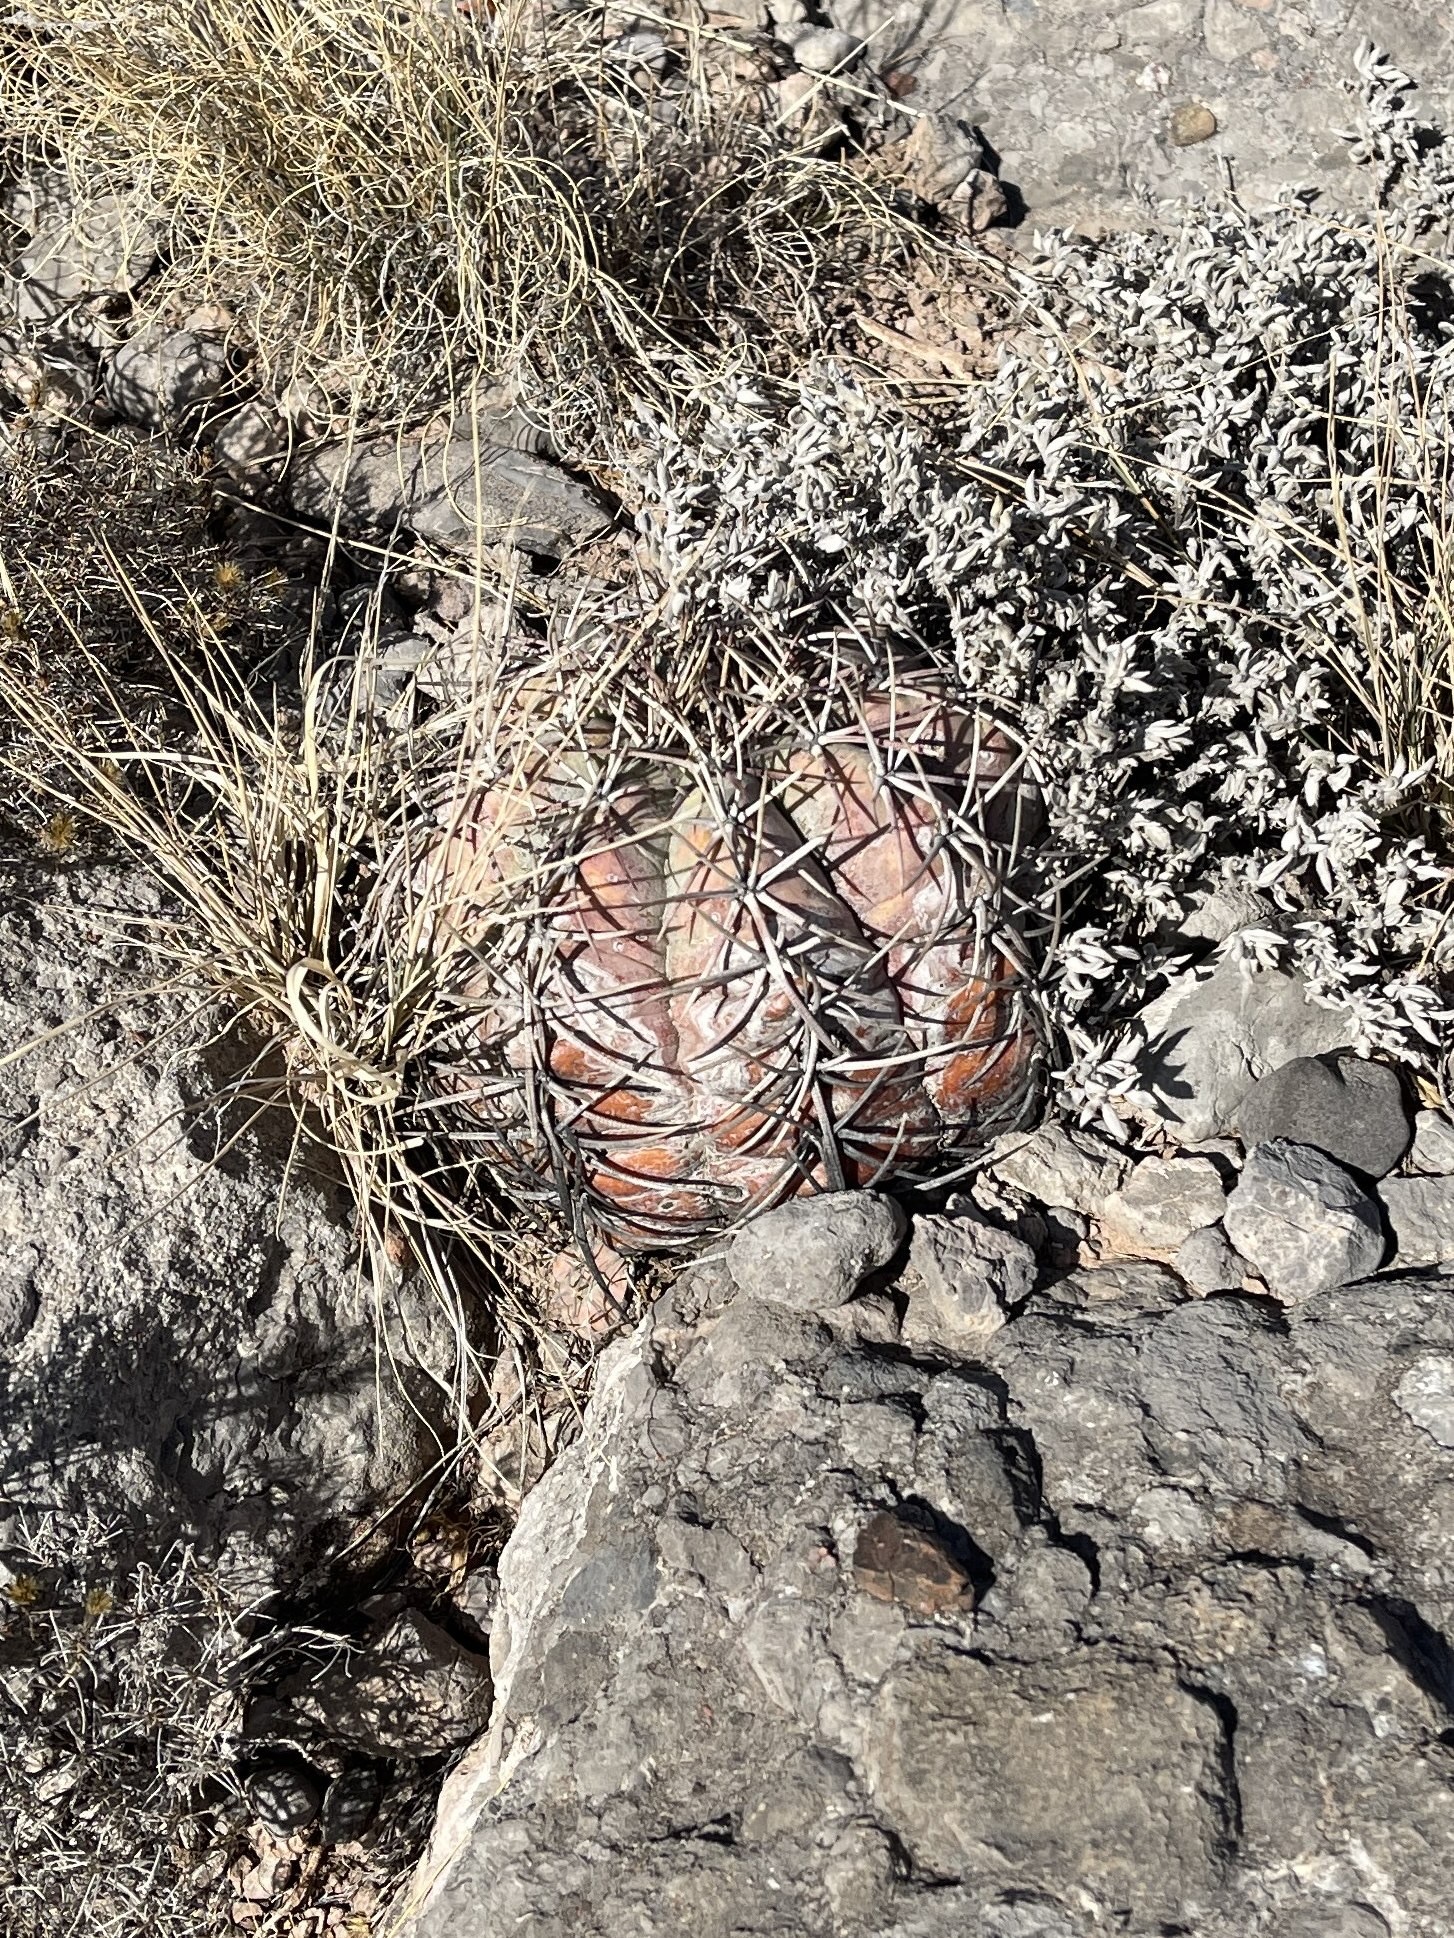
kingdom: Plantae
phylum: Tracheophyta
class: Magnoliopsida
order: Caryophyllales
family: Cactaceae
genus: Echinocactus
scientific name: Echinocactus horizonthalonius
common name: Devilshead
